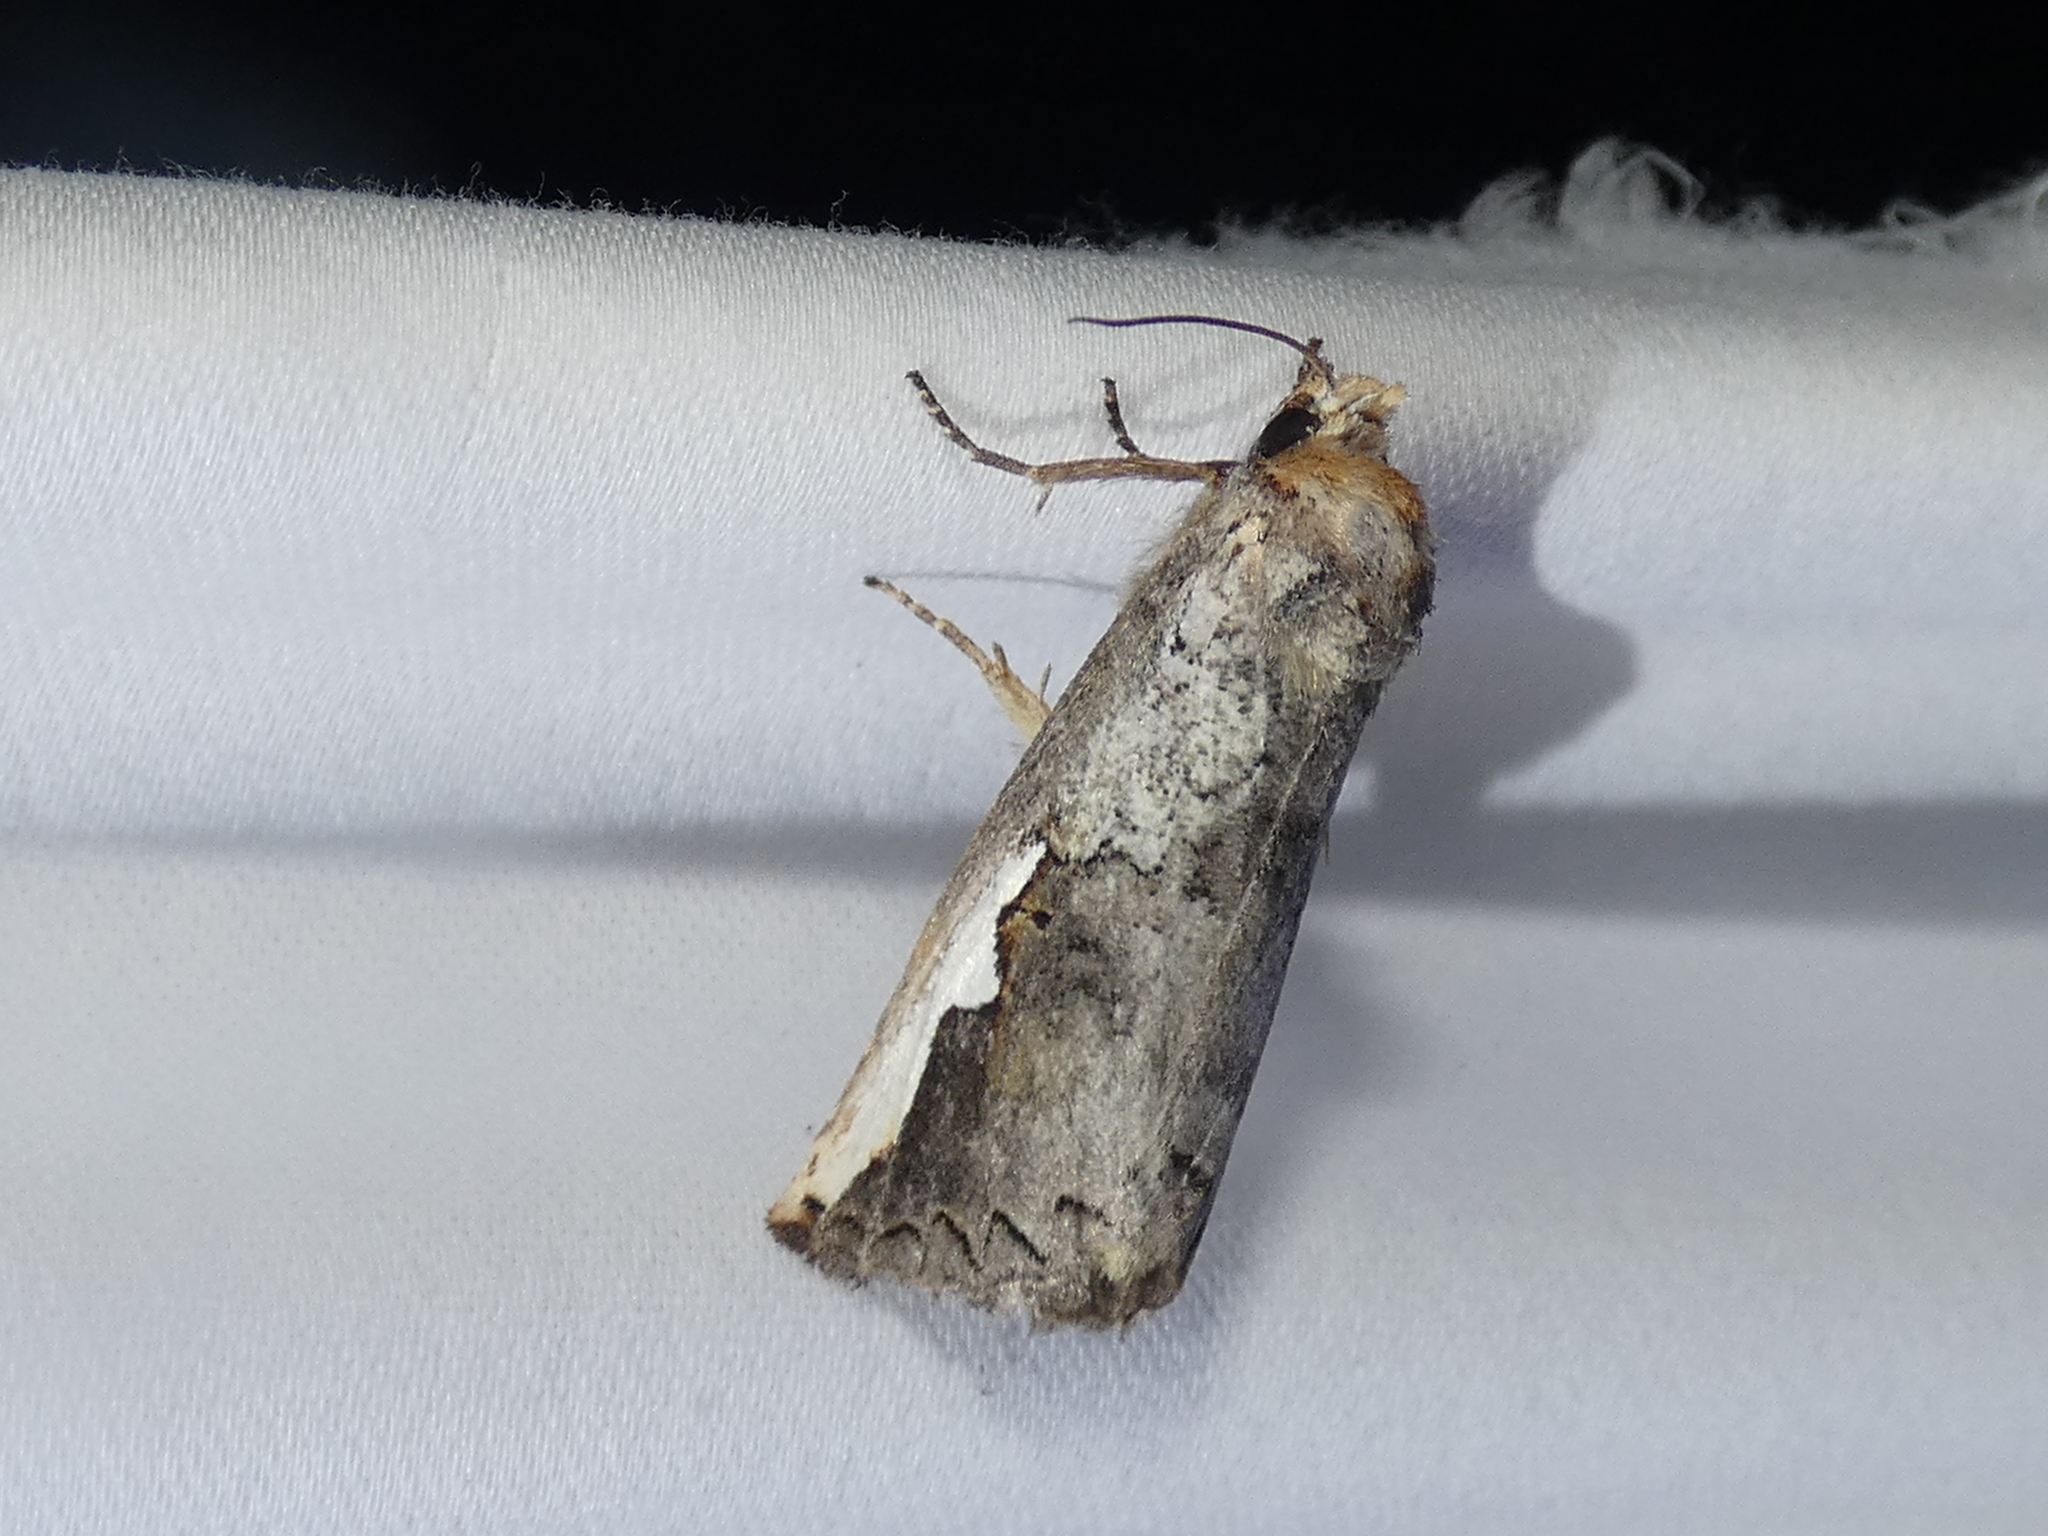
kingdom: Animalia
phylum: Arthropoda
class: Insecta
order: Lepidoptera
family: Notodontidae
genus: Symmerista
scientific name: Symmerista albifrons
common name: White-headed prominent
